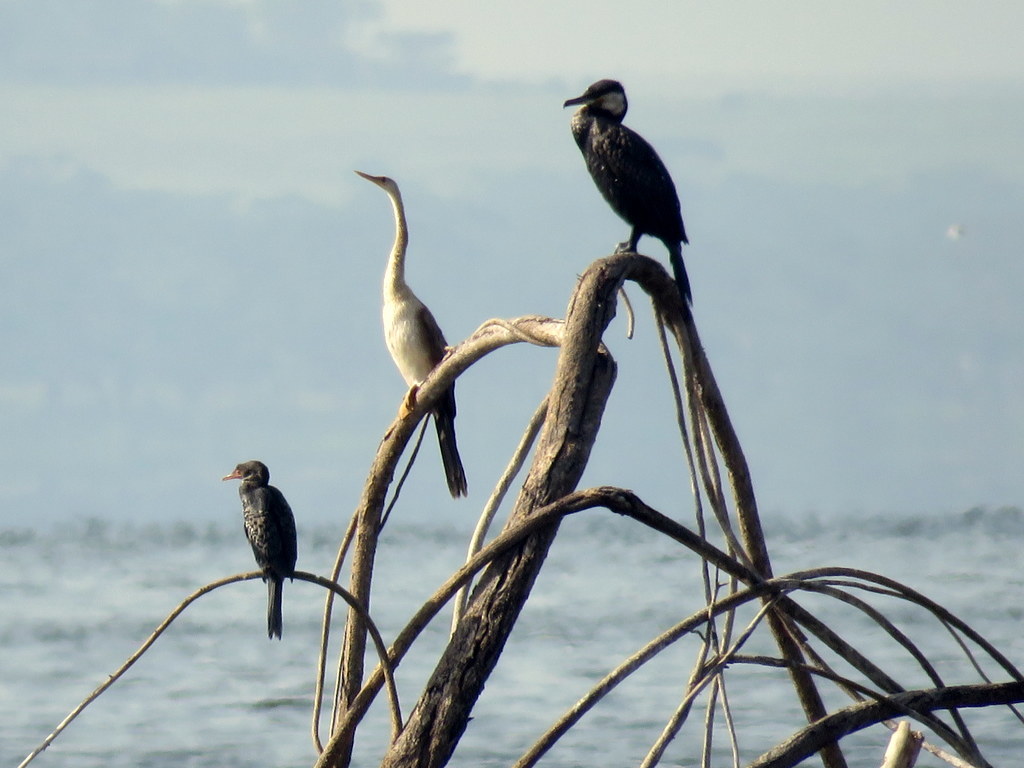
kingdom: Animalia
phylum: Chordata
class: Aves
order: Suliformes
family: Anhingidae
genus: Anhinga
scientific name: Anhinga rufa
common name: African darter
